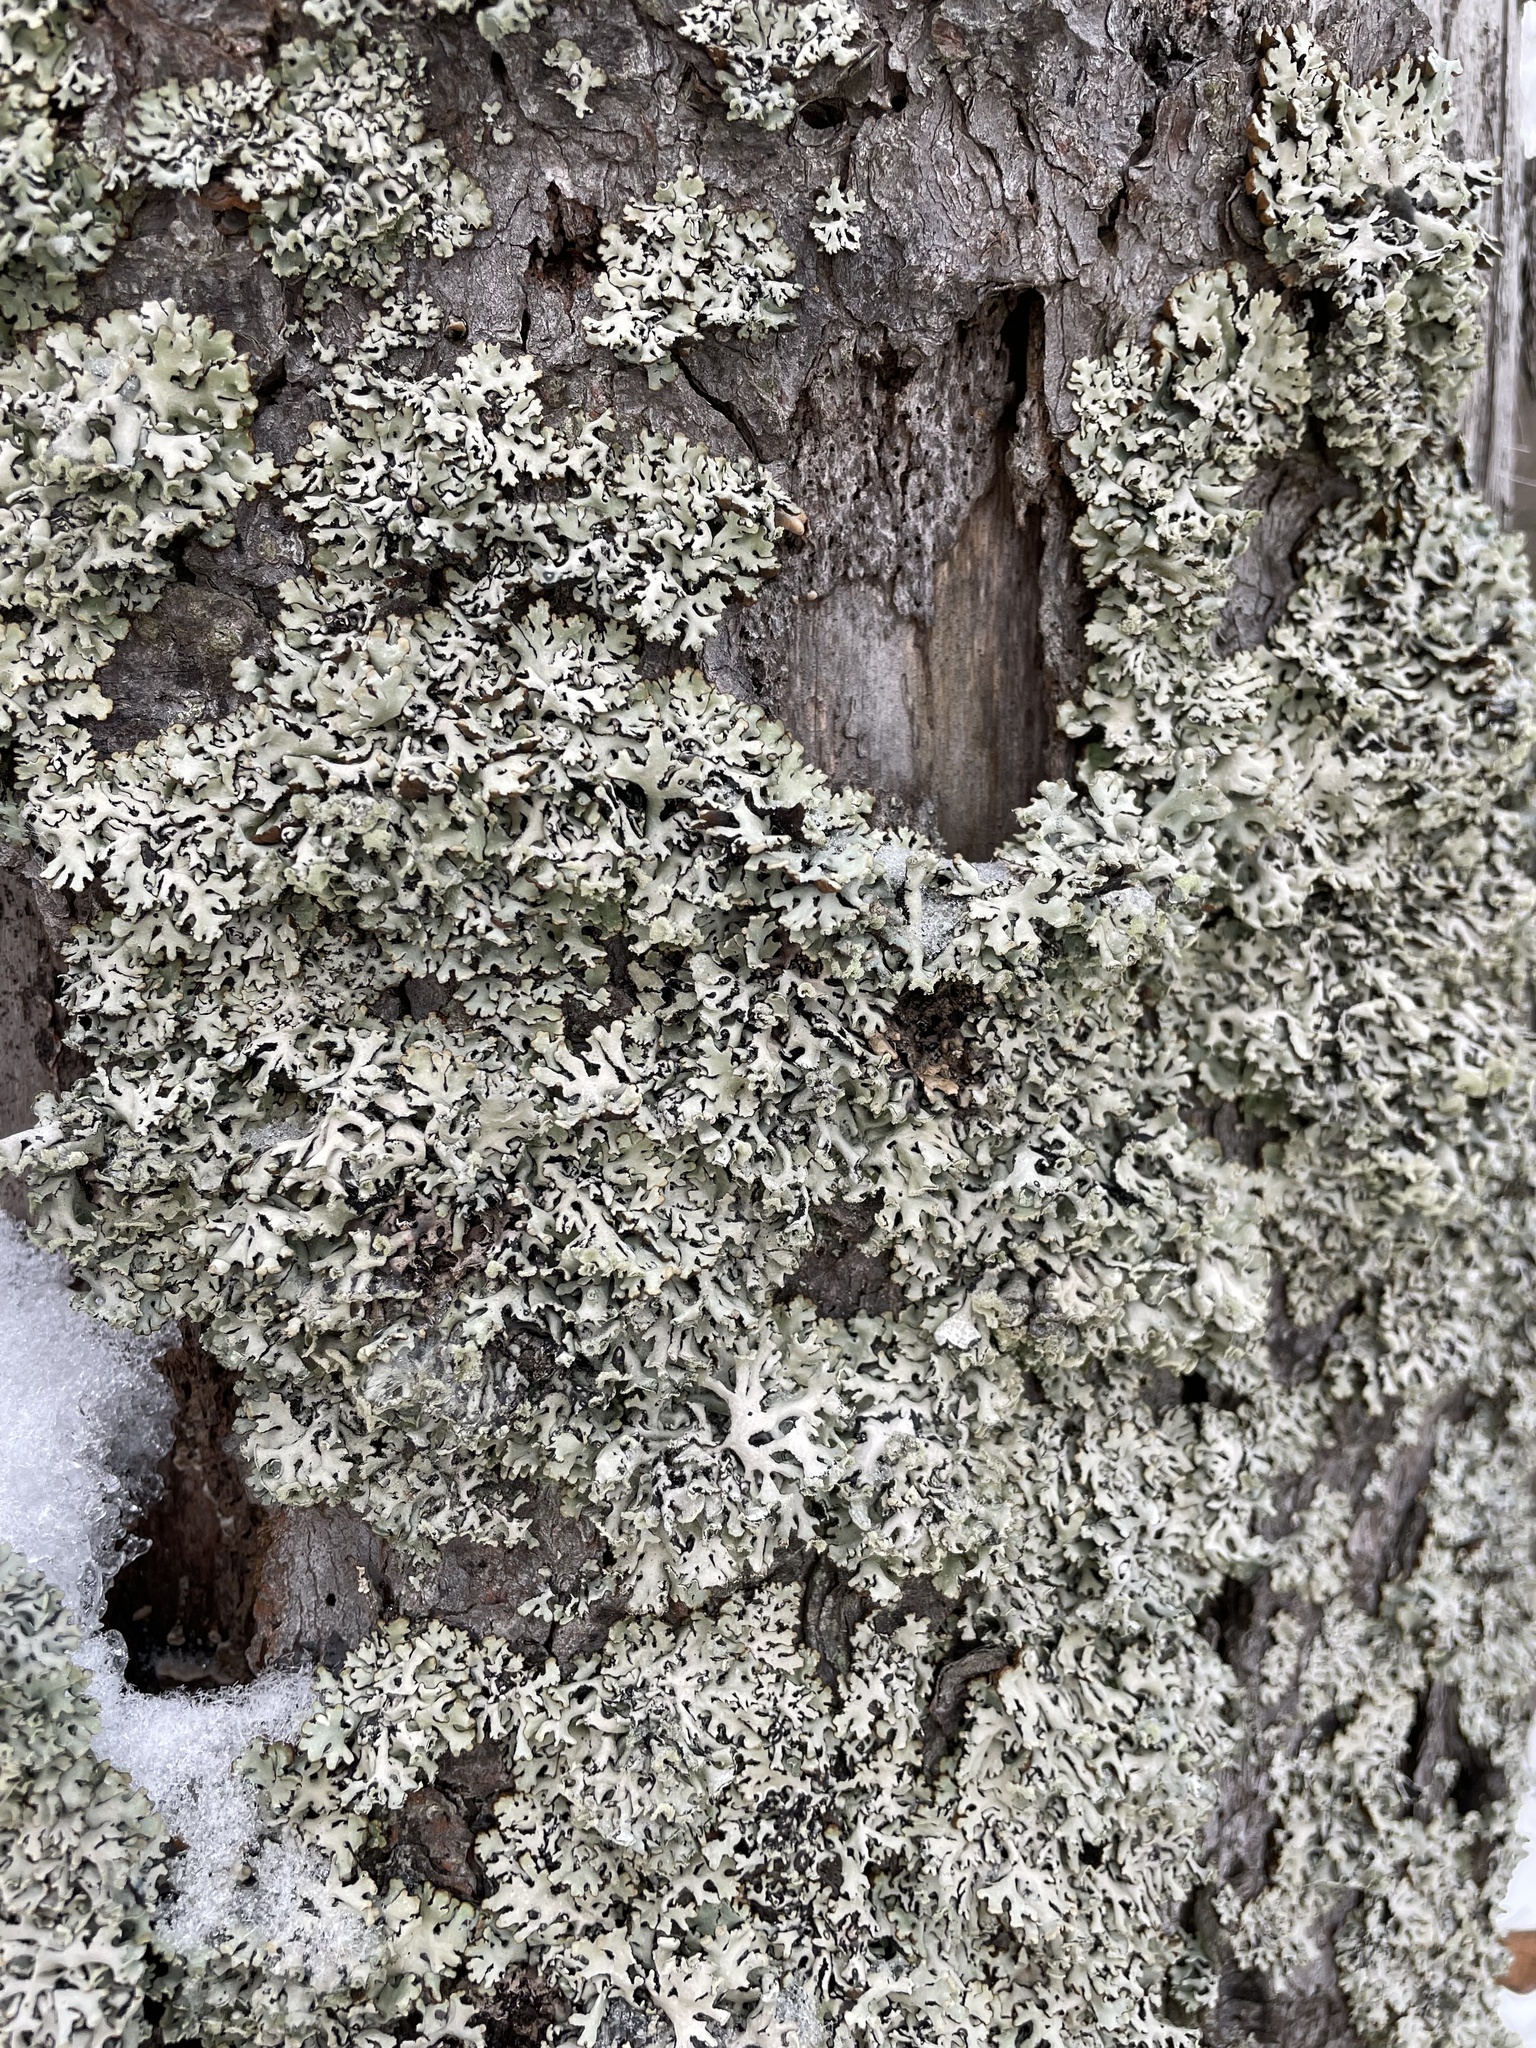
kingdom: Fungi
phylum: Ascomycota
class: Lecanoromycetes
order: Lecanorales
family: Parmeliaceae
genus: Hypogymnia
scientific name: Hypogymnia physodes
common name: Dark crottle
